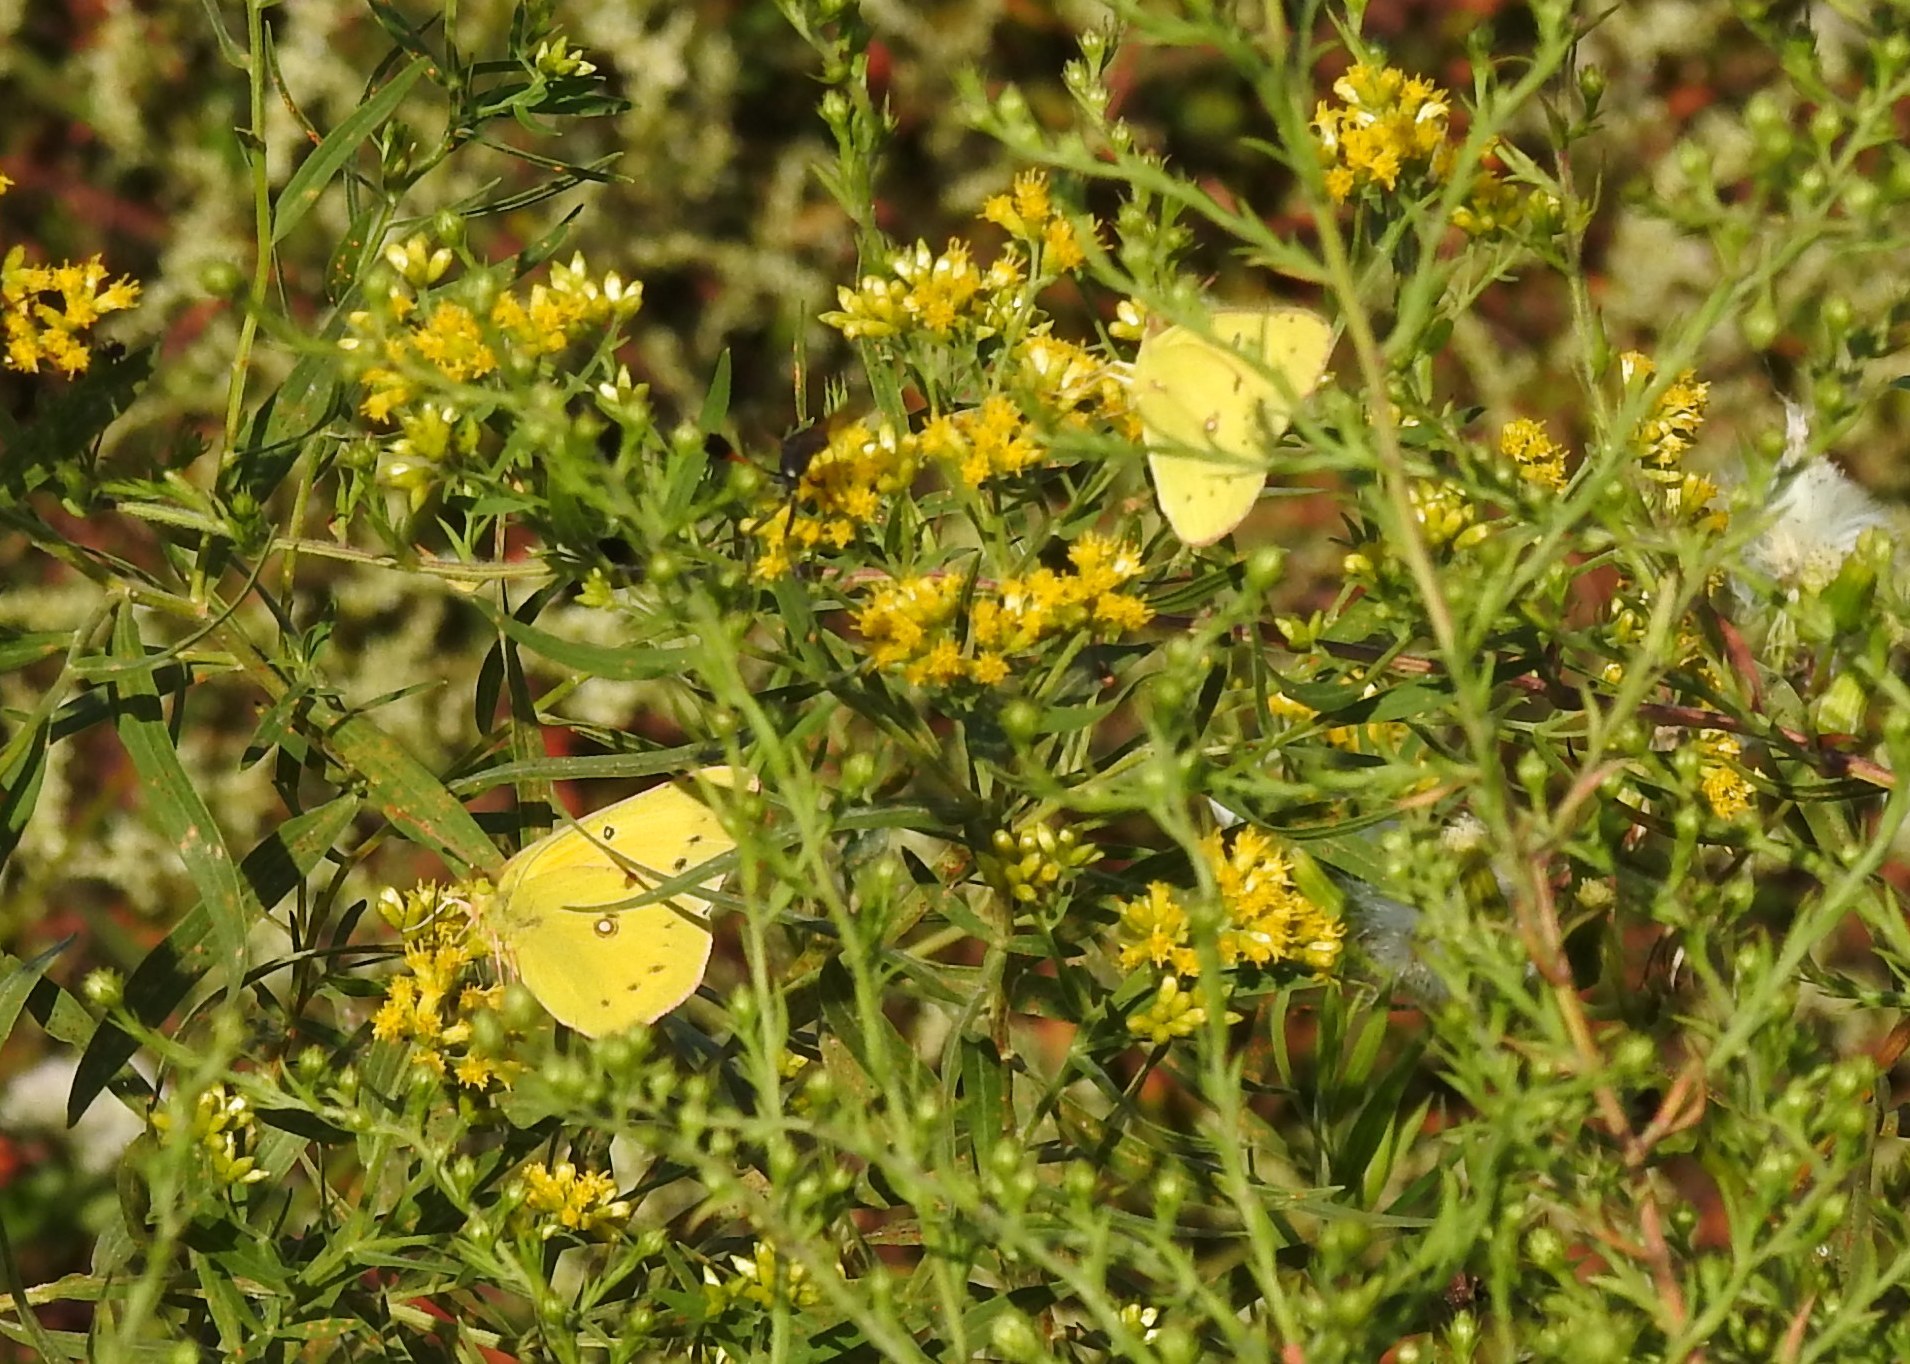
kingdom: Animalia
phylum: Arthropoda
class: Insecta
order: Lepidoptera
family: Pieridae
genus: Colias
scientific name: Colias eurytheme
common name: Alfalfa butterfly
